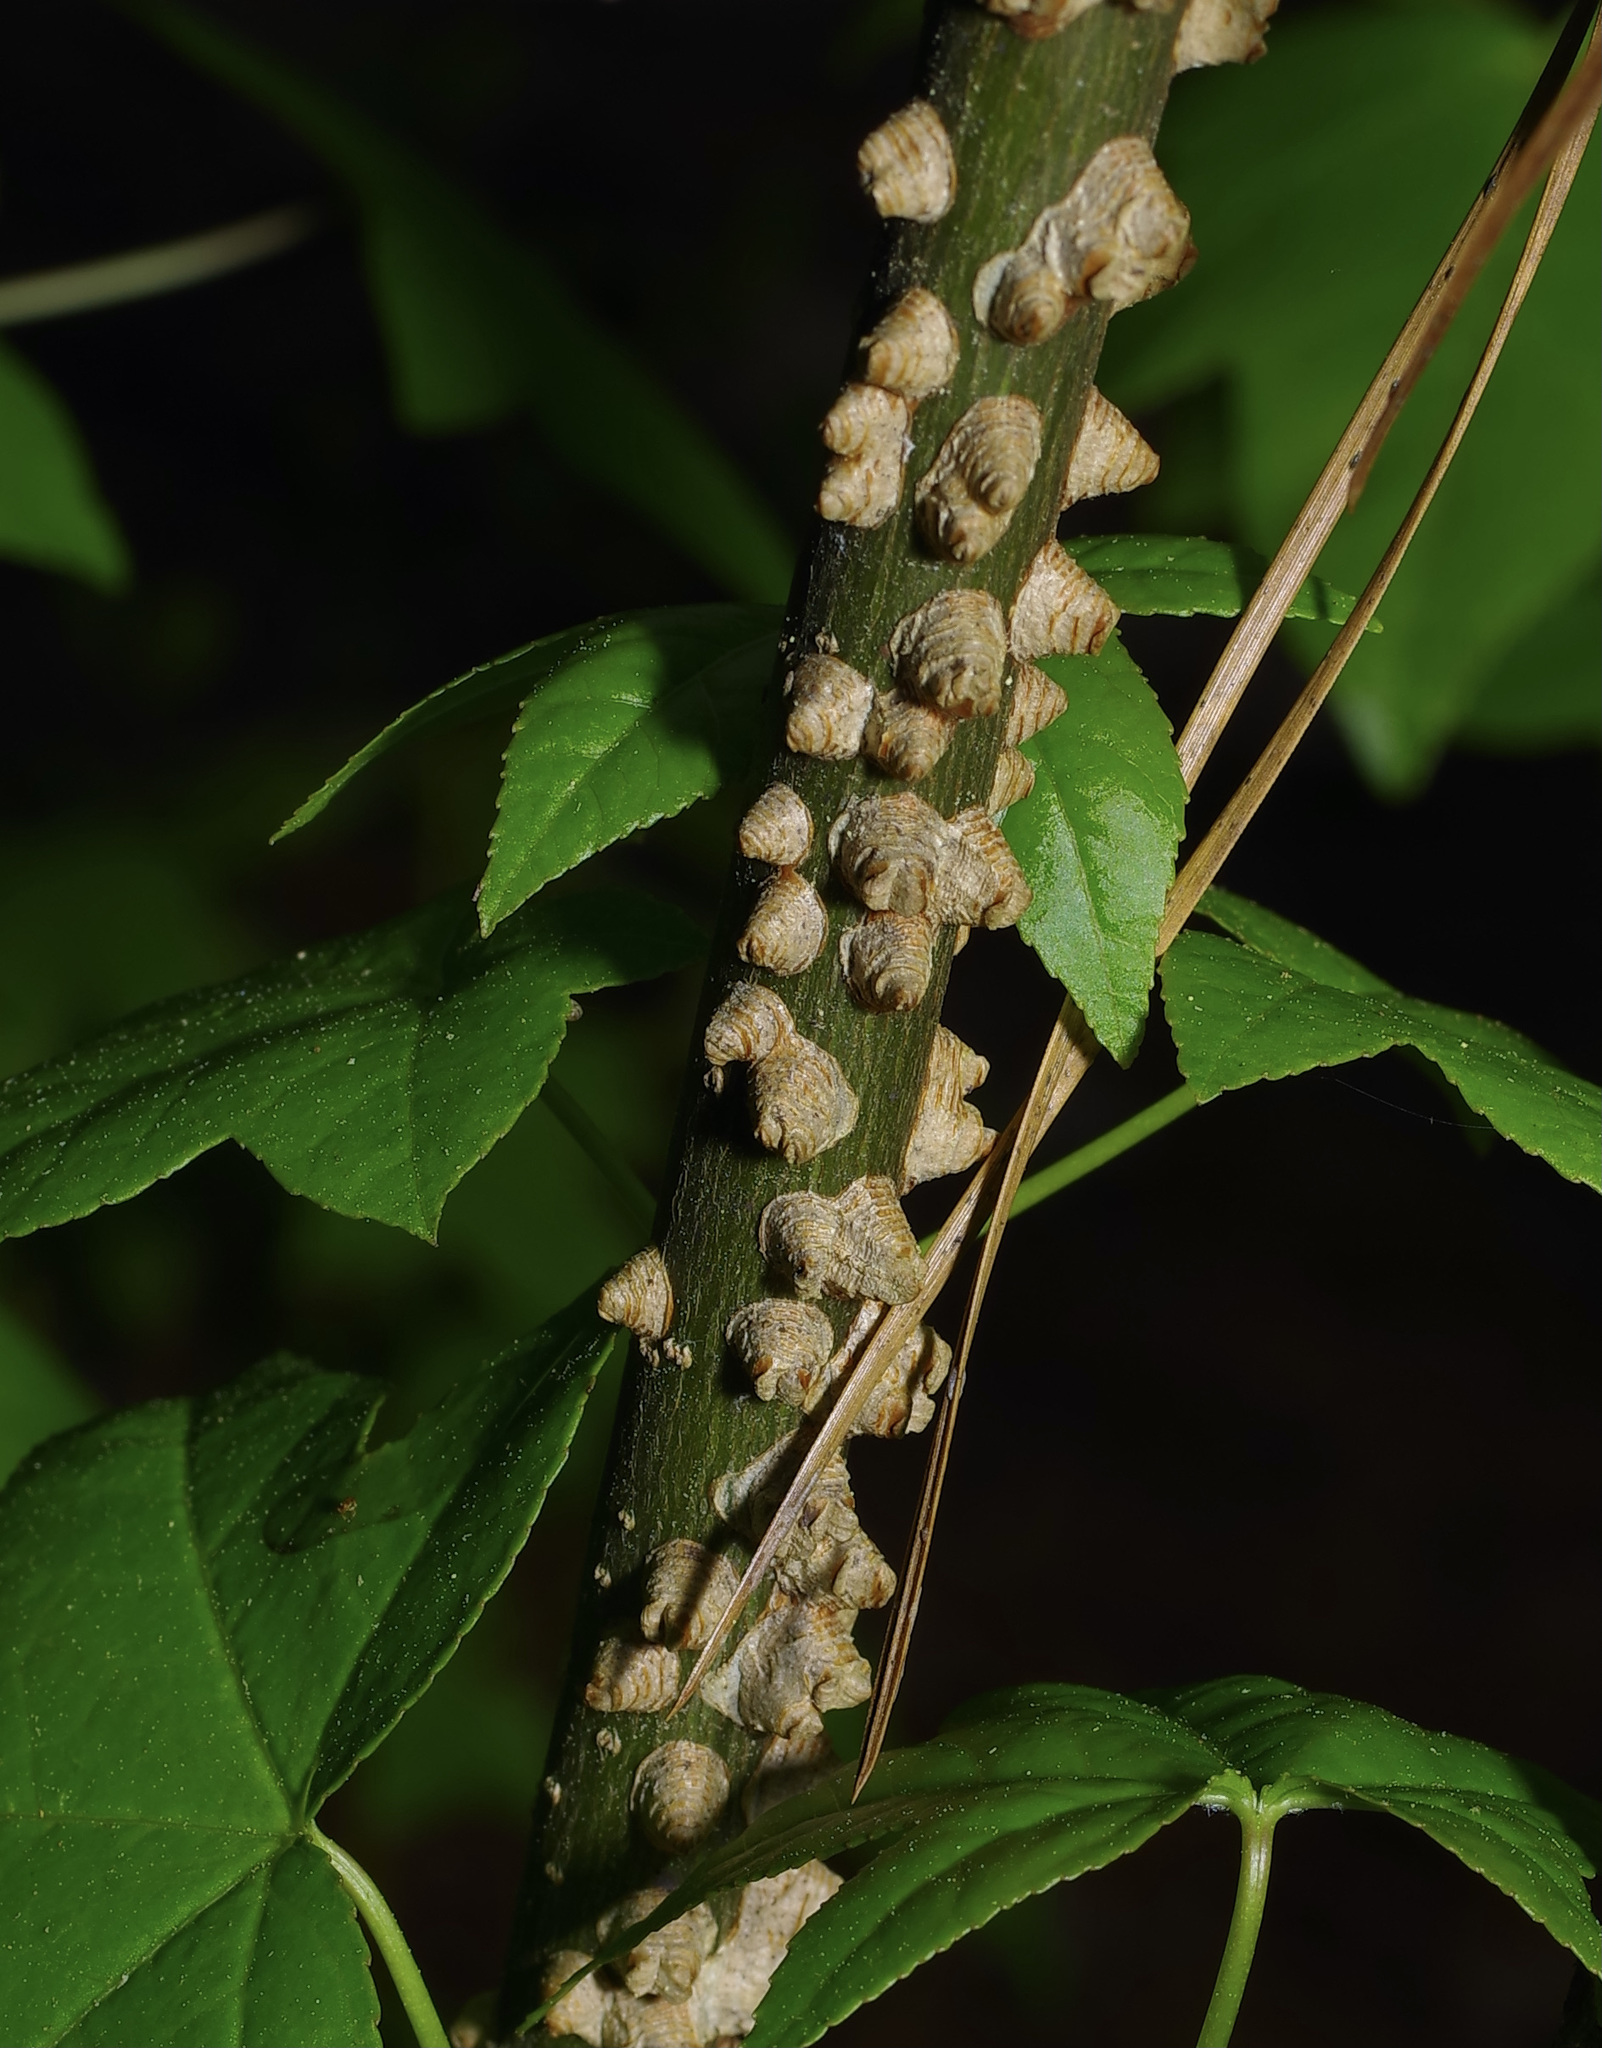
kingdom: Plantae
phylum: Tracheophyta
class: Magnoliopsida
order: Saxifragales
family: Altingiaceae
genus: Liquidambar
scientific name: Liquidambar styraciflua
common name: Sweet gum
